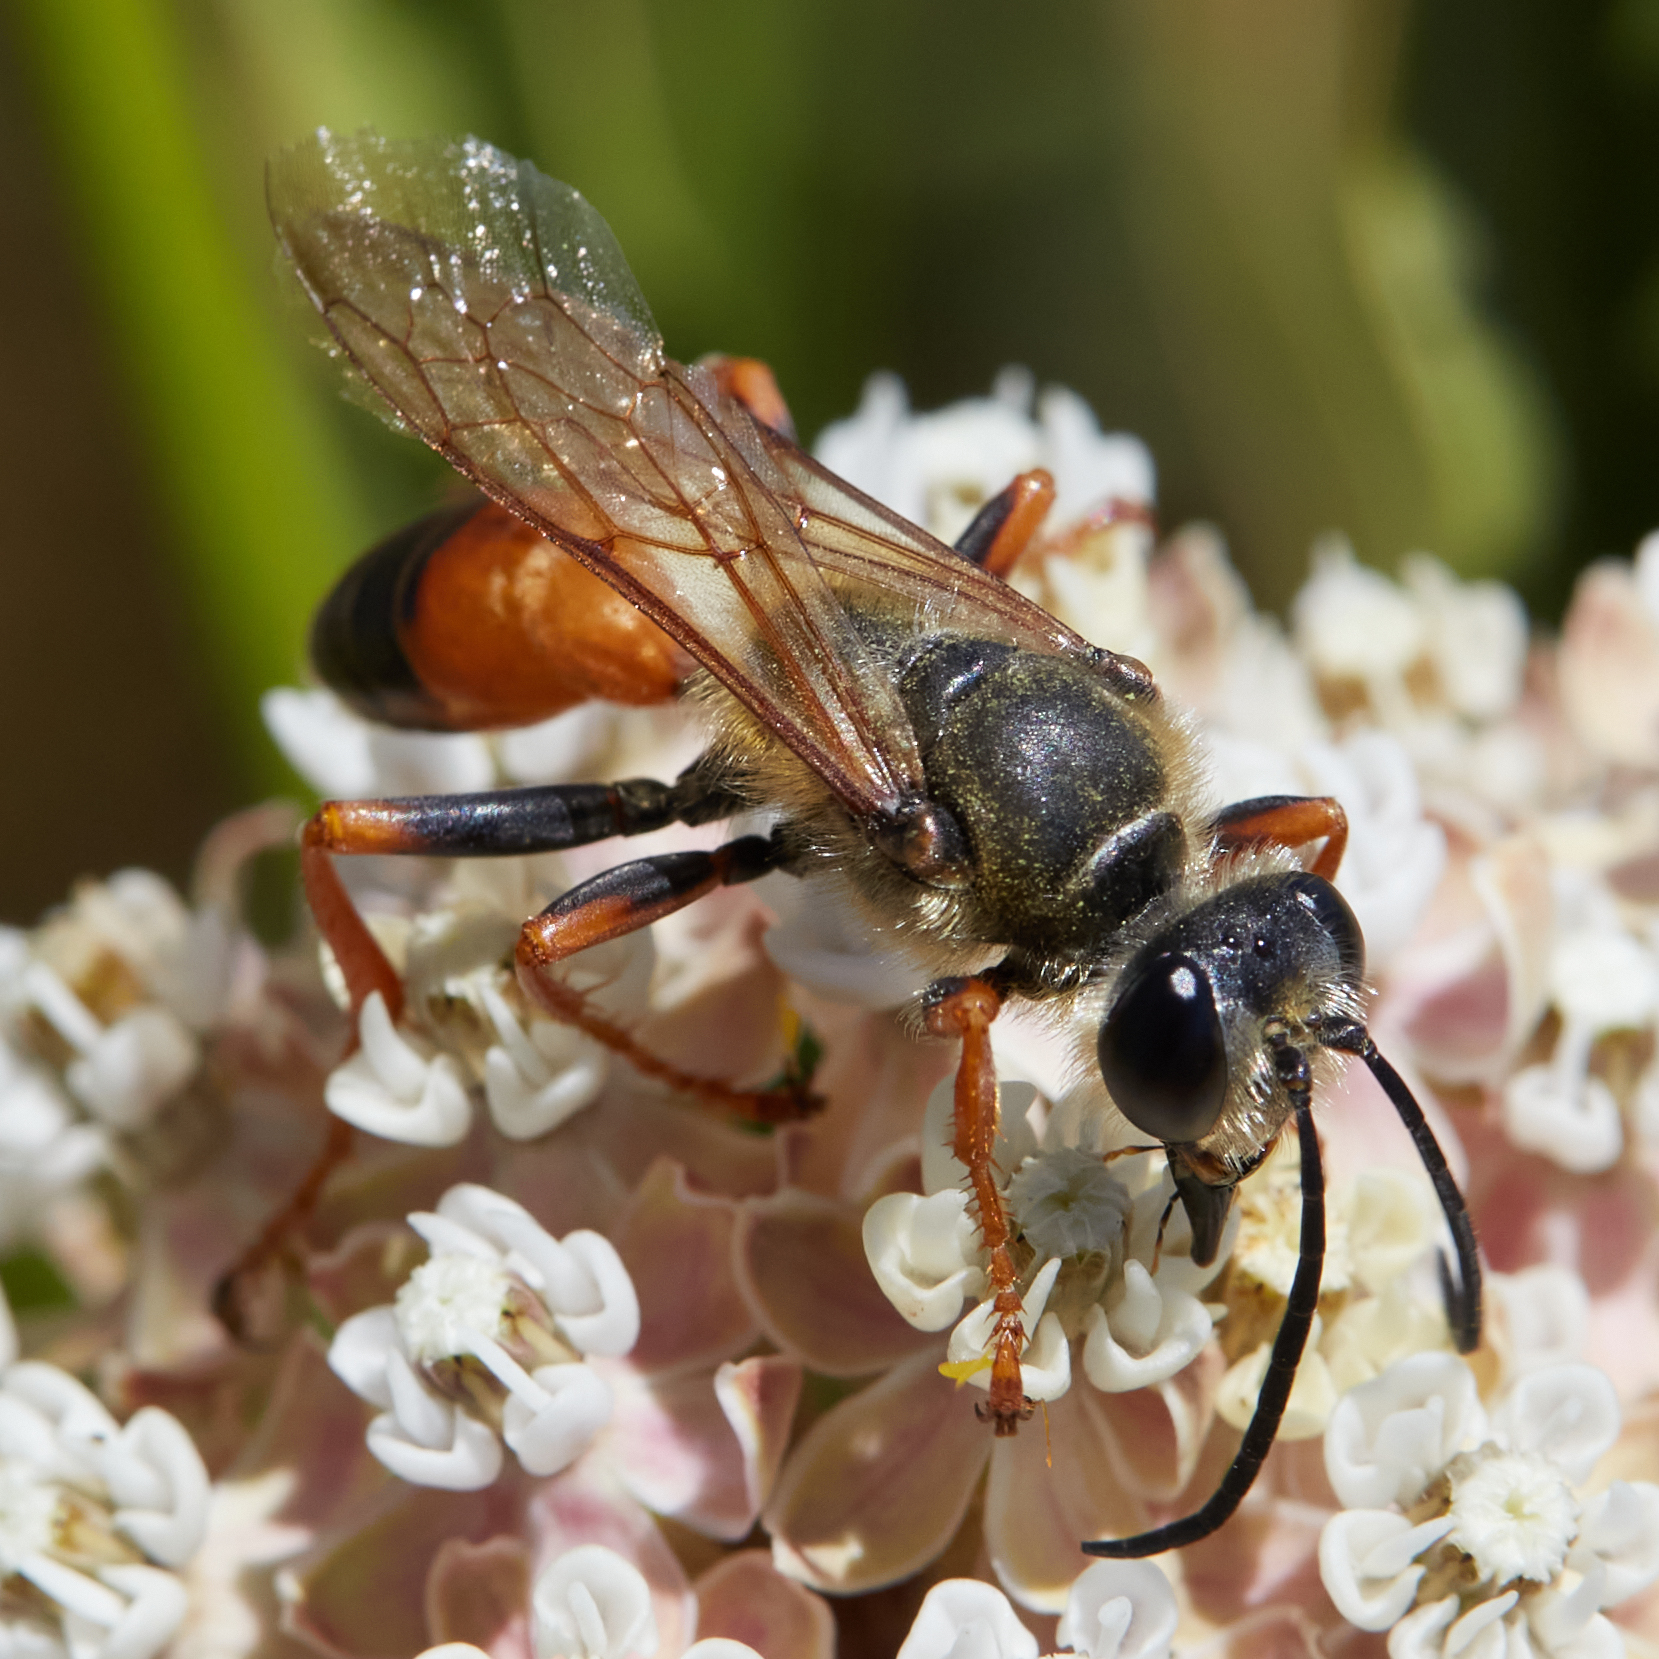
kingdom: Animalia
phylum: Arthropoda
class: Insecta
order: Hymenoptera
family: Sphecidae
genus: Sphex
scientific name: Sphex ichneumoneus
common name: Great golden digger wasp
